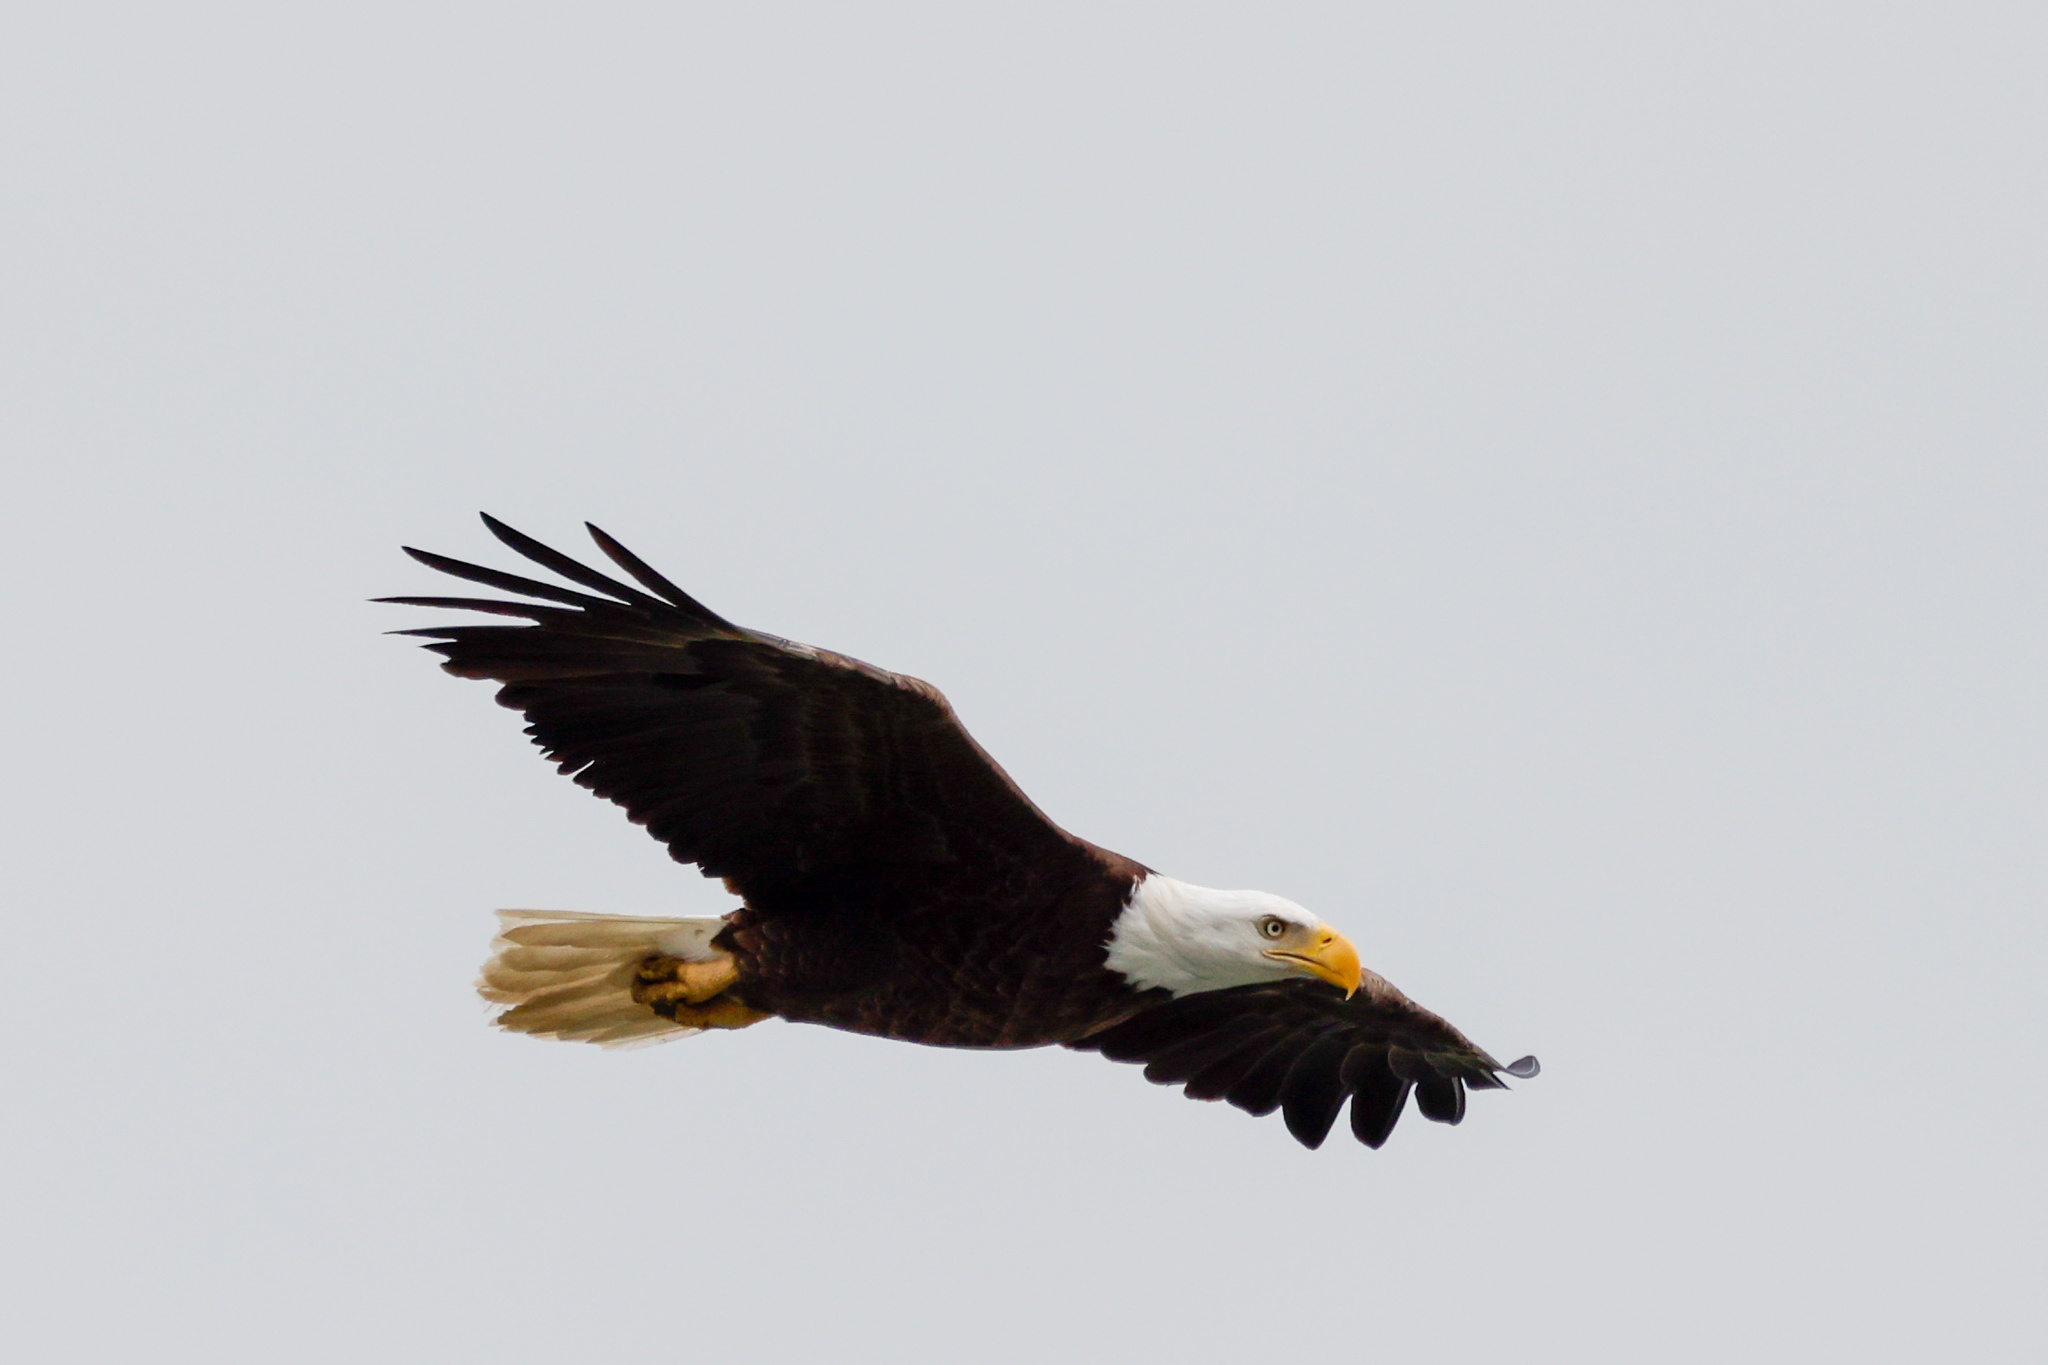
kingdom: Animalia
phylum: Chordata
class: Aves
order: Accipitriformes
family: Accipitridae
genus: Haliaeetus
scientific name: Haliaeetus leucocephalus
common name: Bald eagle
